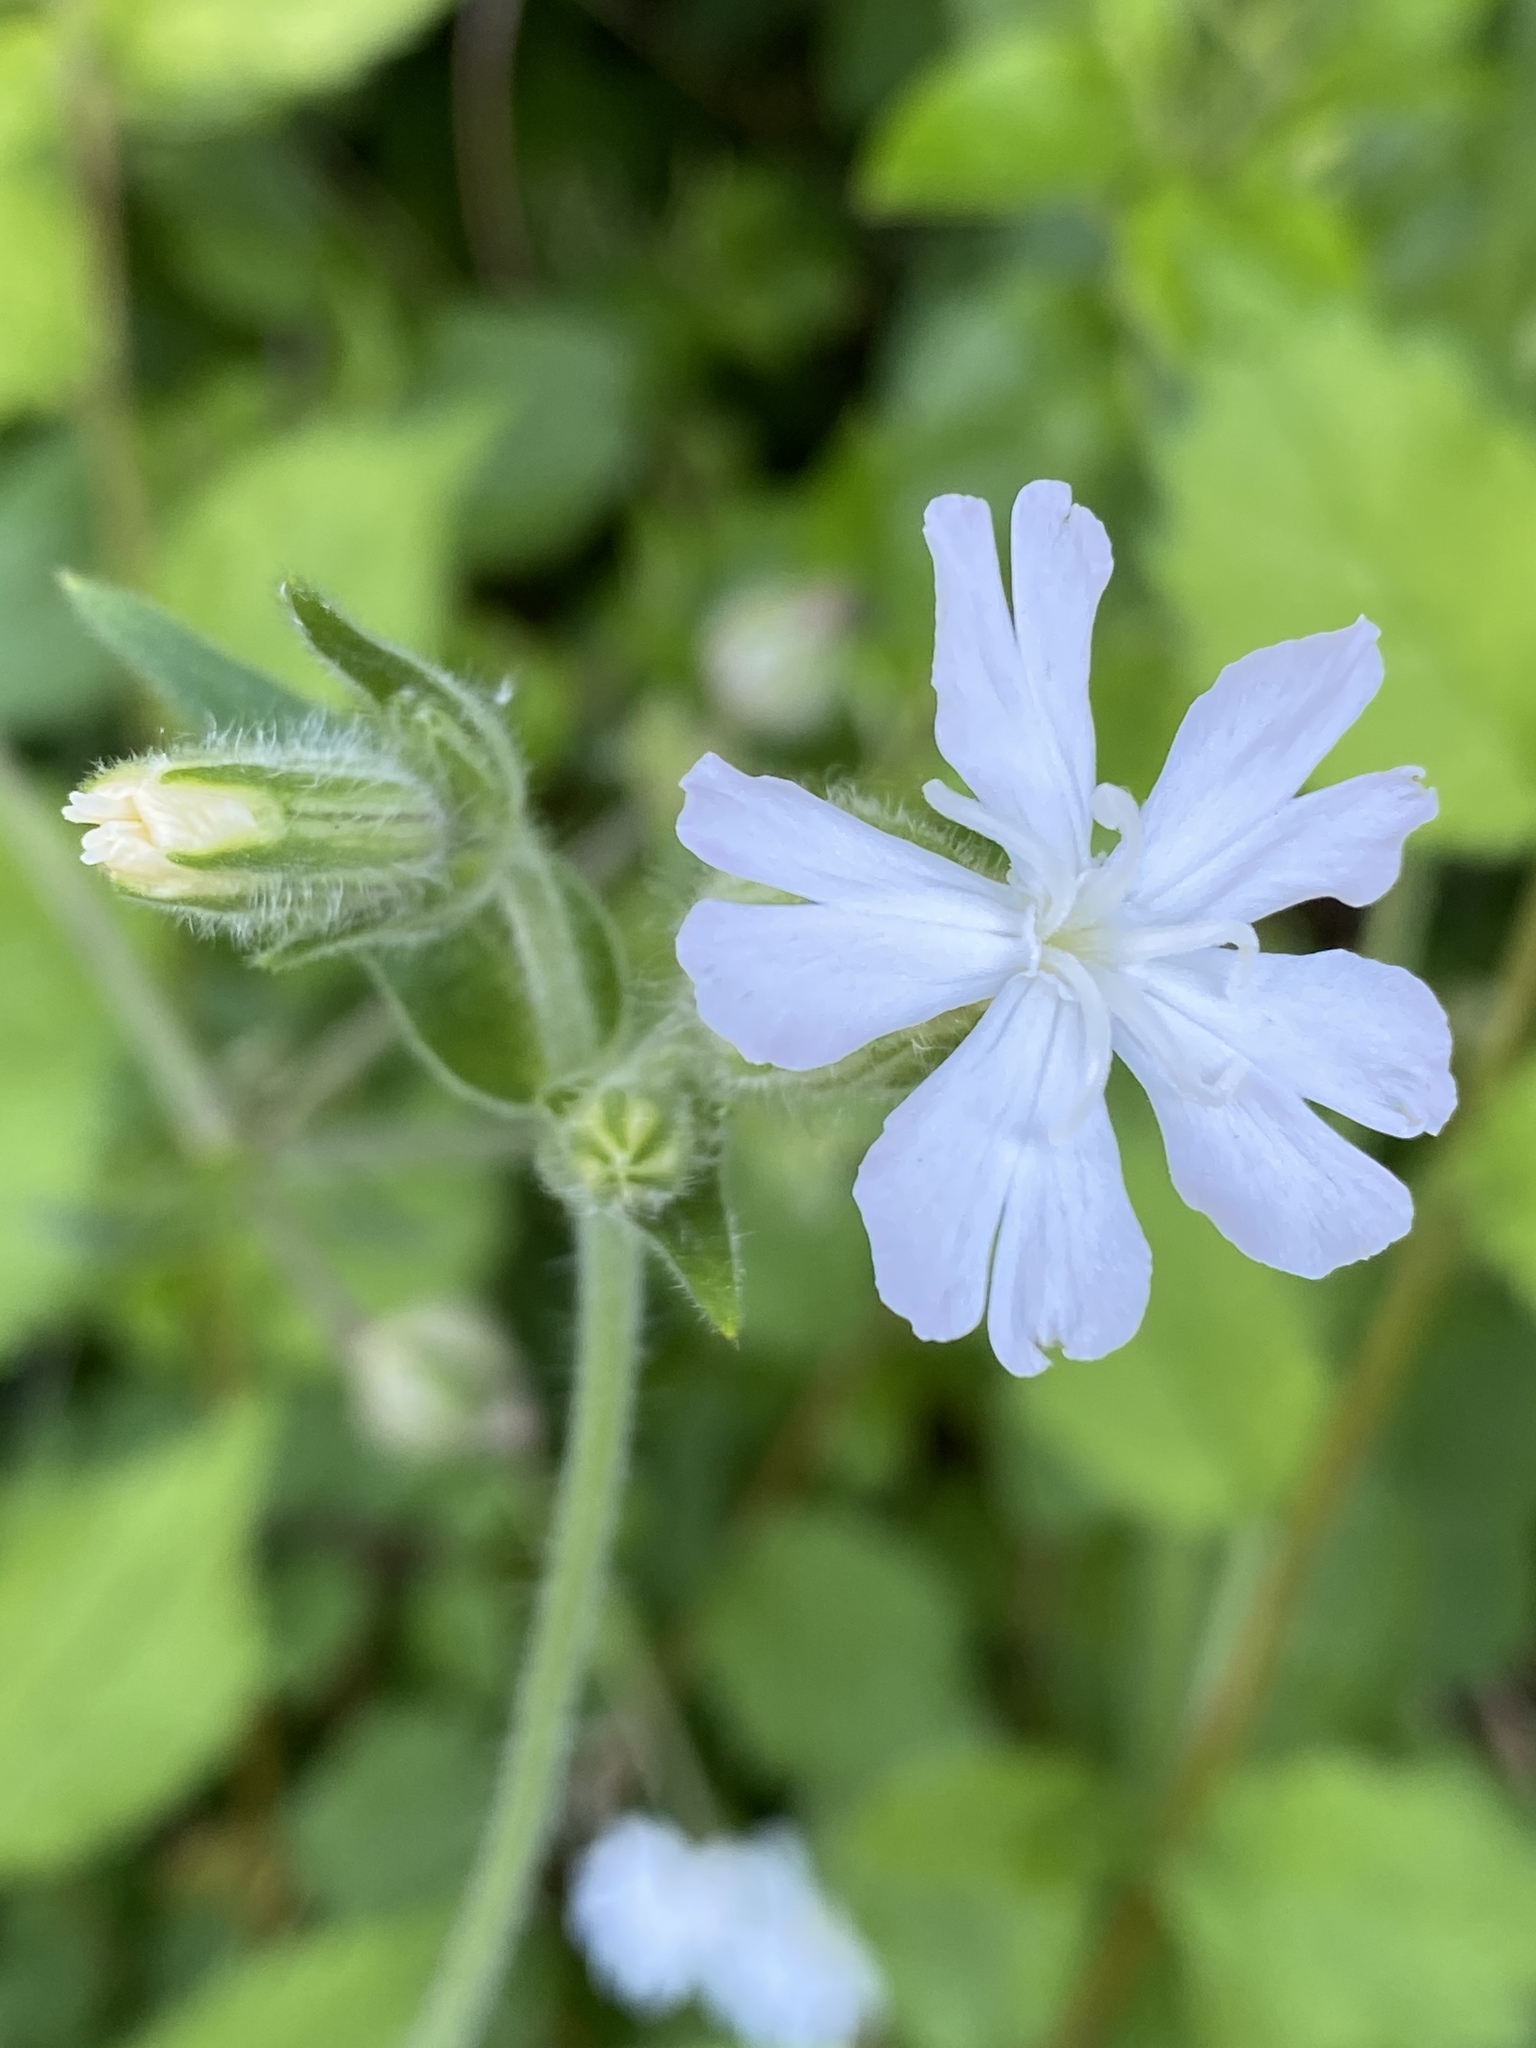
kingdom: Plantae
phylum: Tracheophyta
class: Magnoliopsida
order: Caryophyllales
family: Caryophyllaceae
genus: Silene
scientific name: Silene latifolia
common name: White campion
